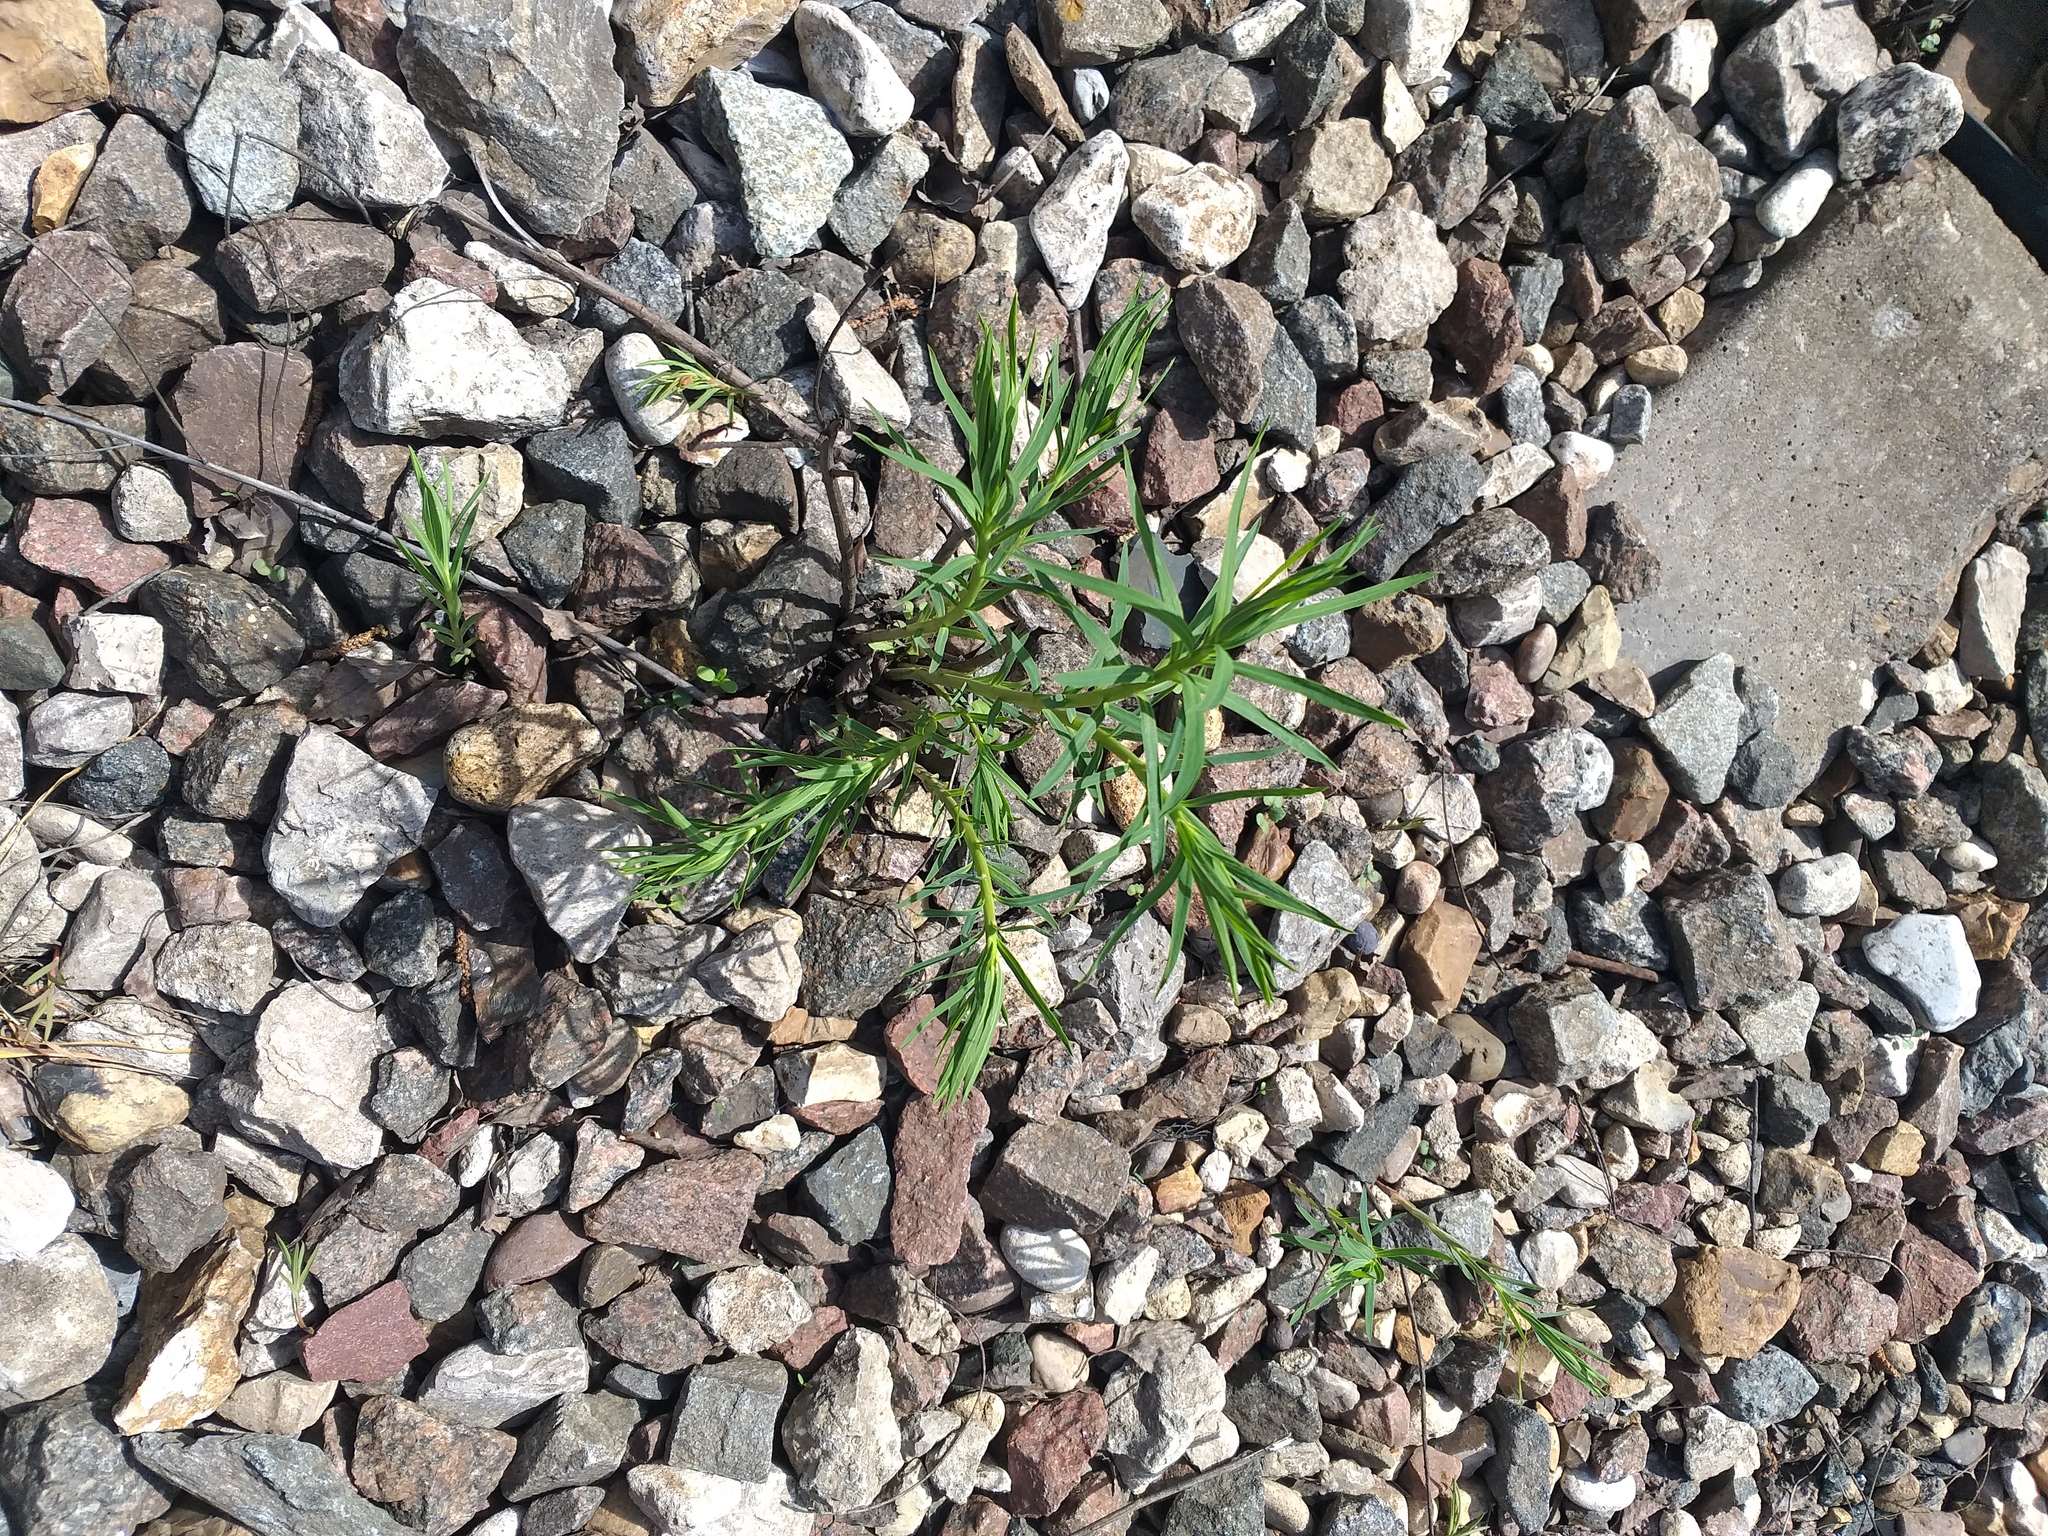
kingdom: Plantae
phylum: Tracheophyta
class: Magnoliopsida
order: Malpighiales
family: Euphorbiaceae
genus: Euphorbia
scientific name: Euphorbia virgata
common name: Leafy spurge
